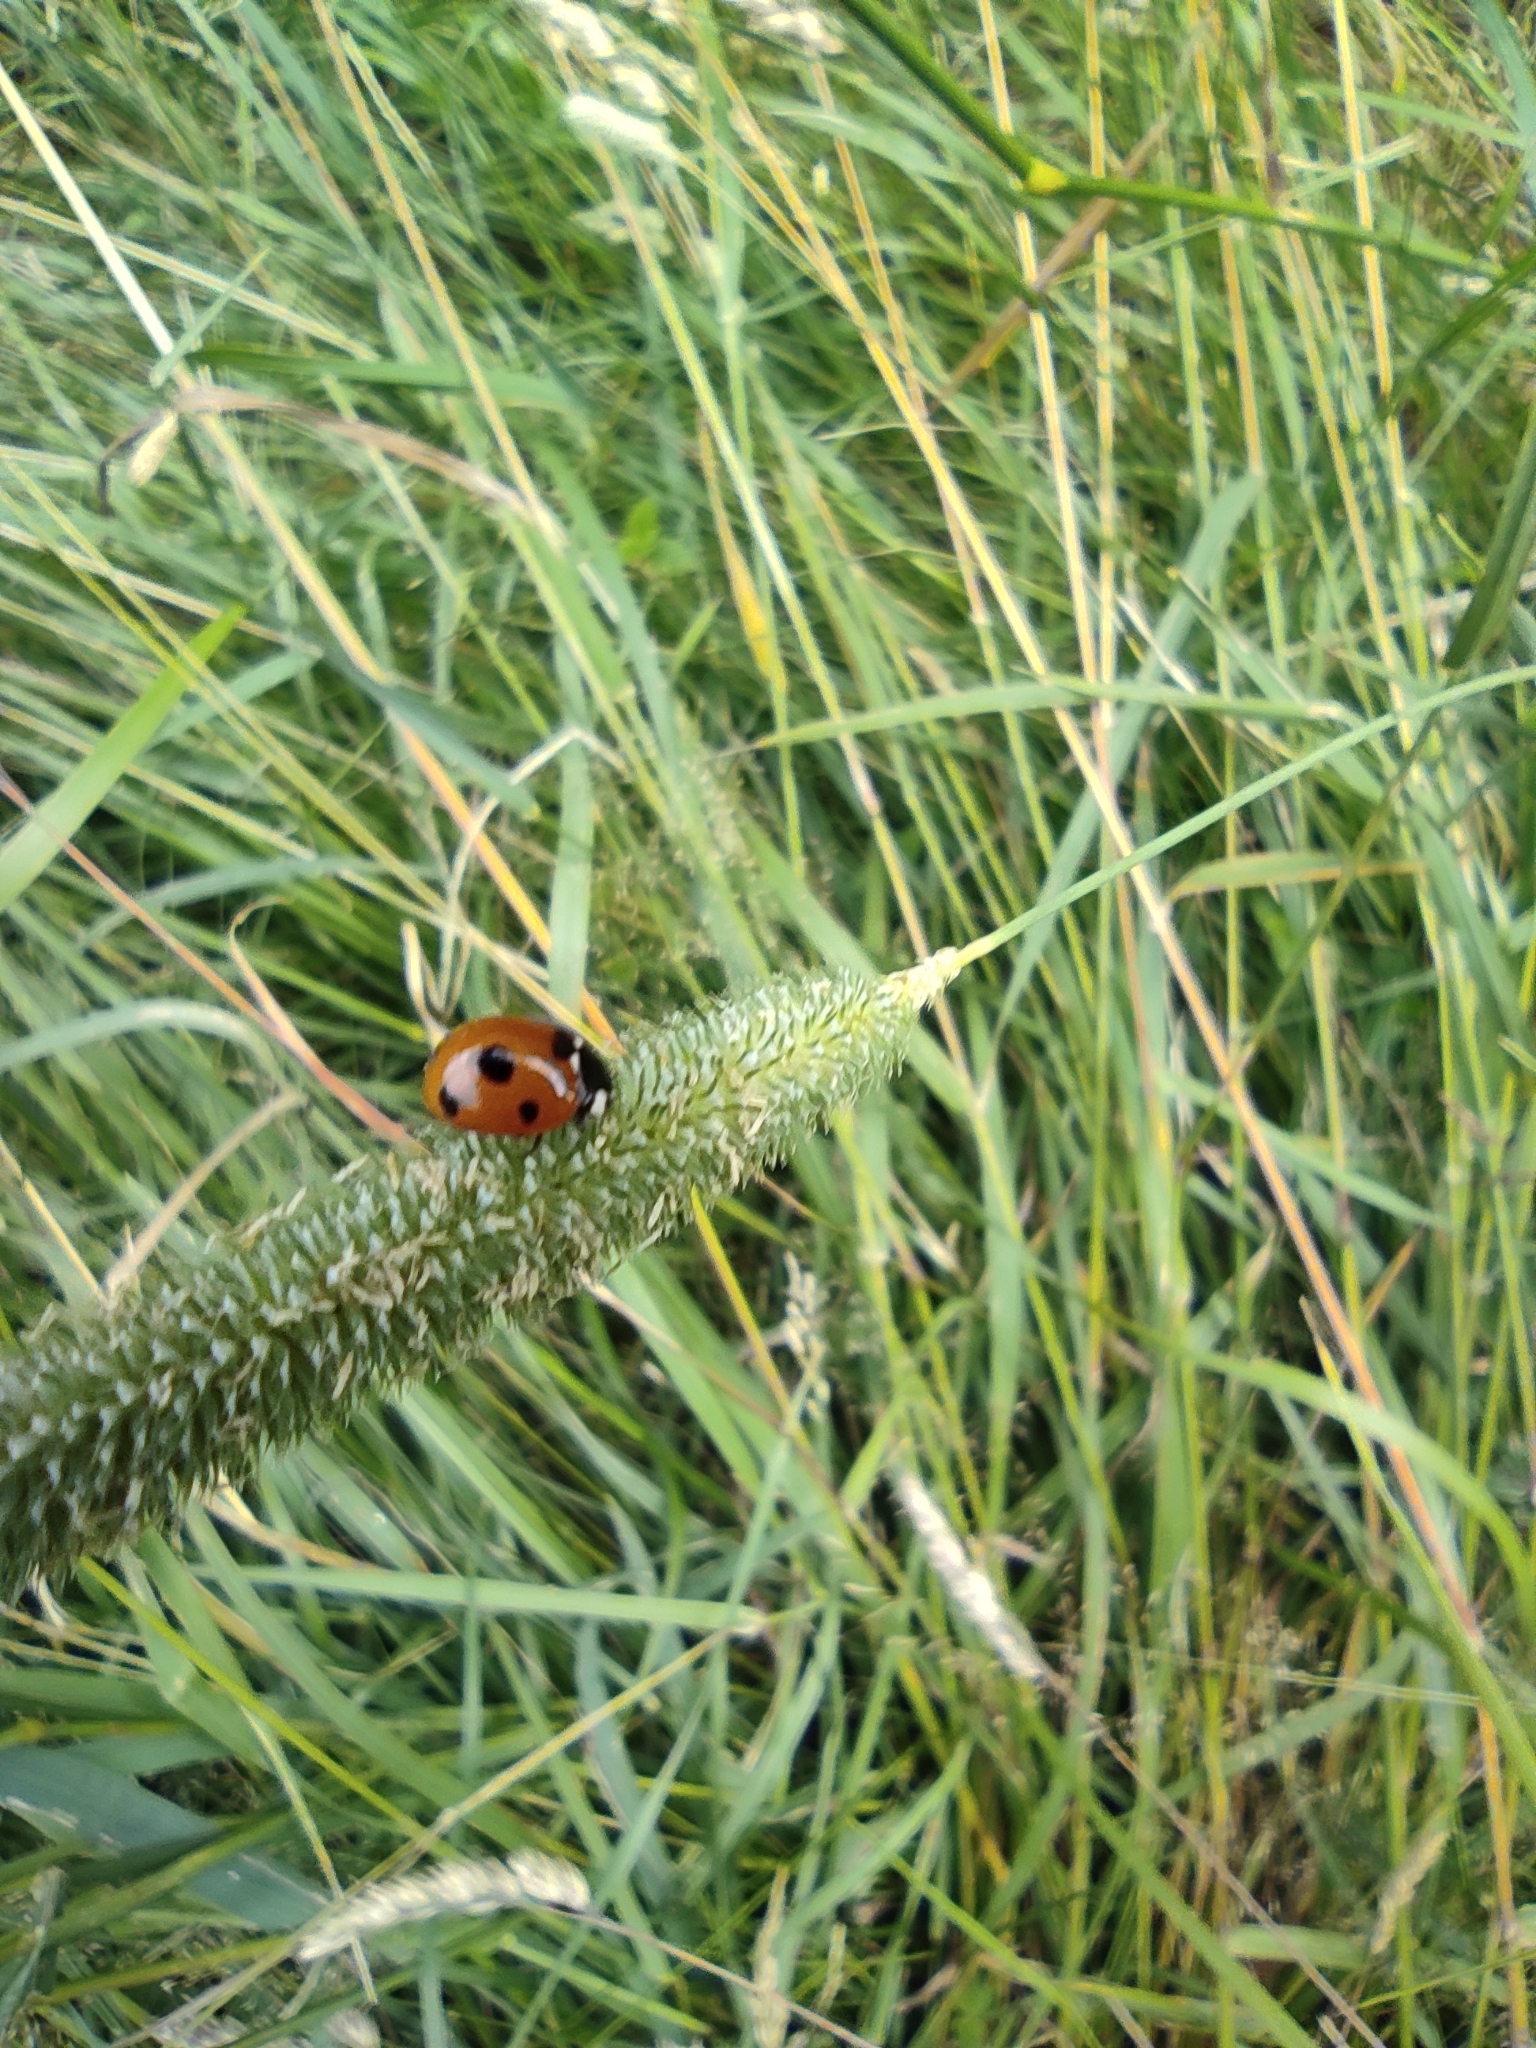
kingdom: Animalia
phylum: Arthropoda
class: Insecta
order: Coleoptera
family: Coccinellidae
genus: Coccinella
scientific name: Coccinella septempunctata
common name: Sevenspotted lady beetle
